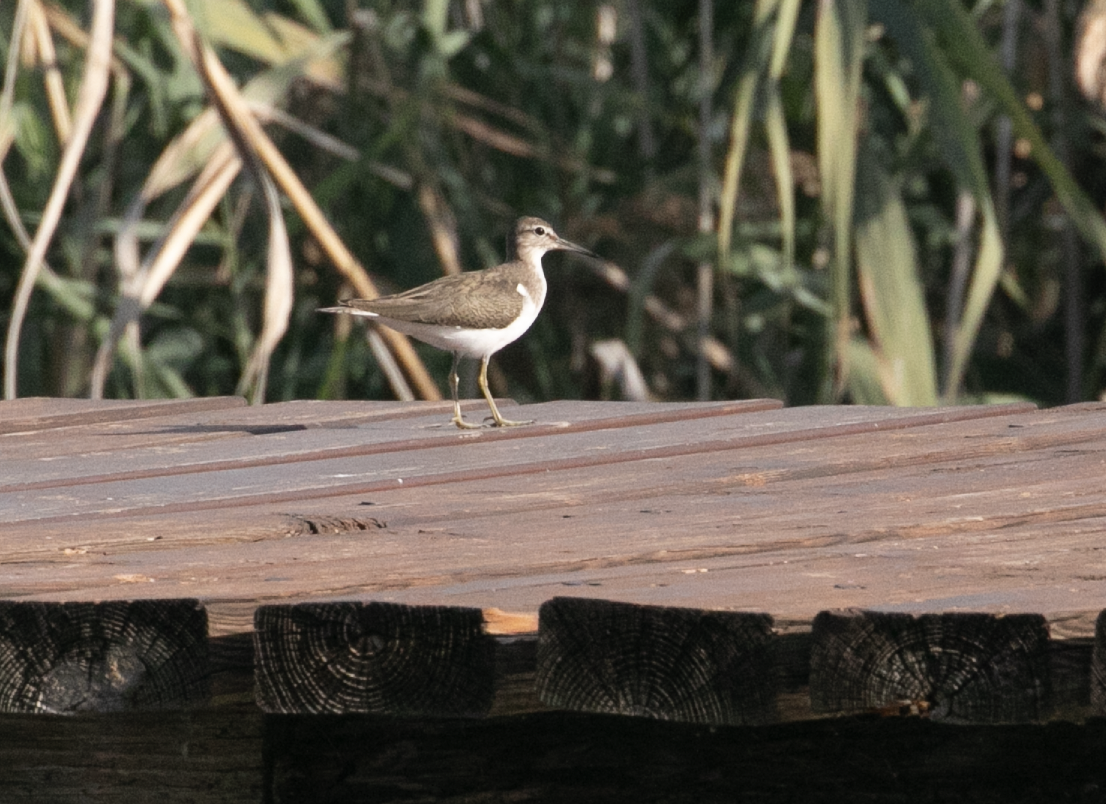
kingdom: Animalia
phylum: Chordata
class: Aves
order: Charadriiformes
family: Scolopacidae
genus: Actitis
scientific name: Actitis hypoleucos
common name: Common sandpiper
